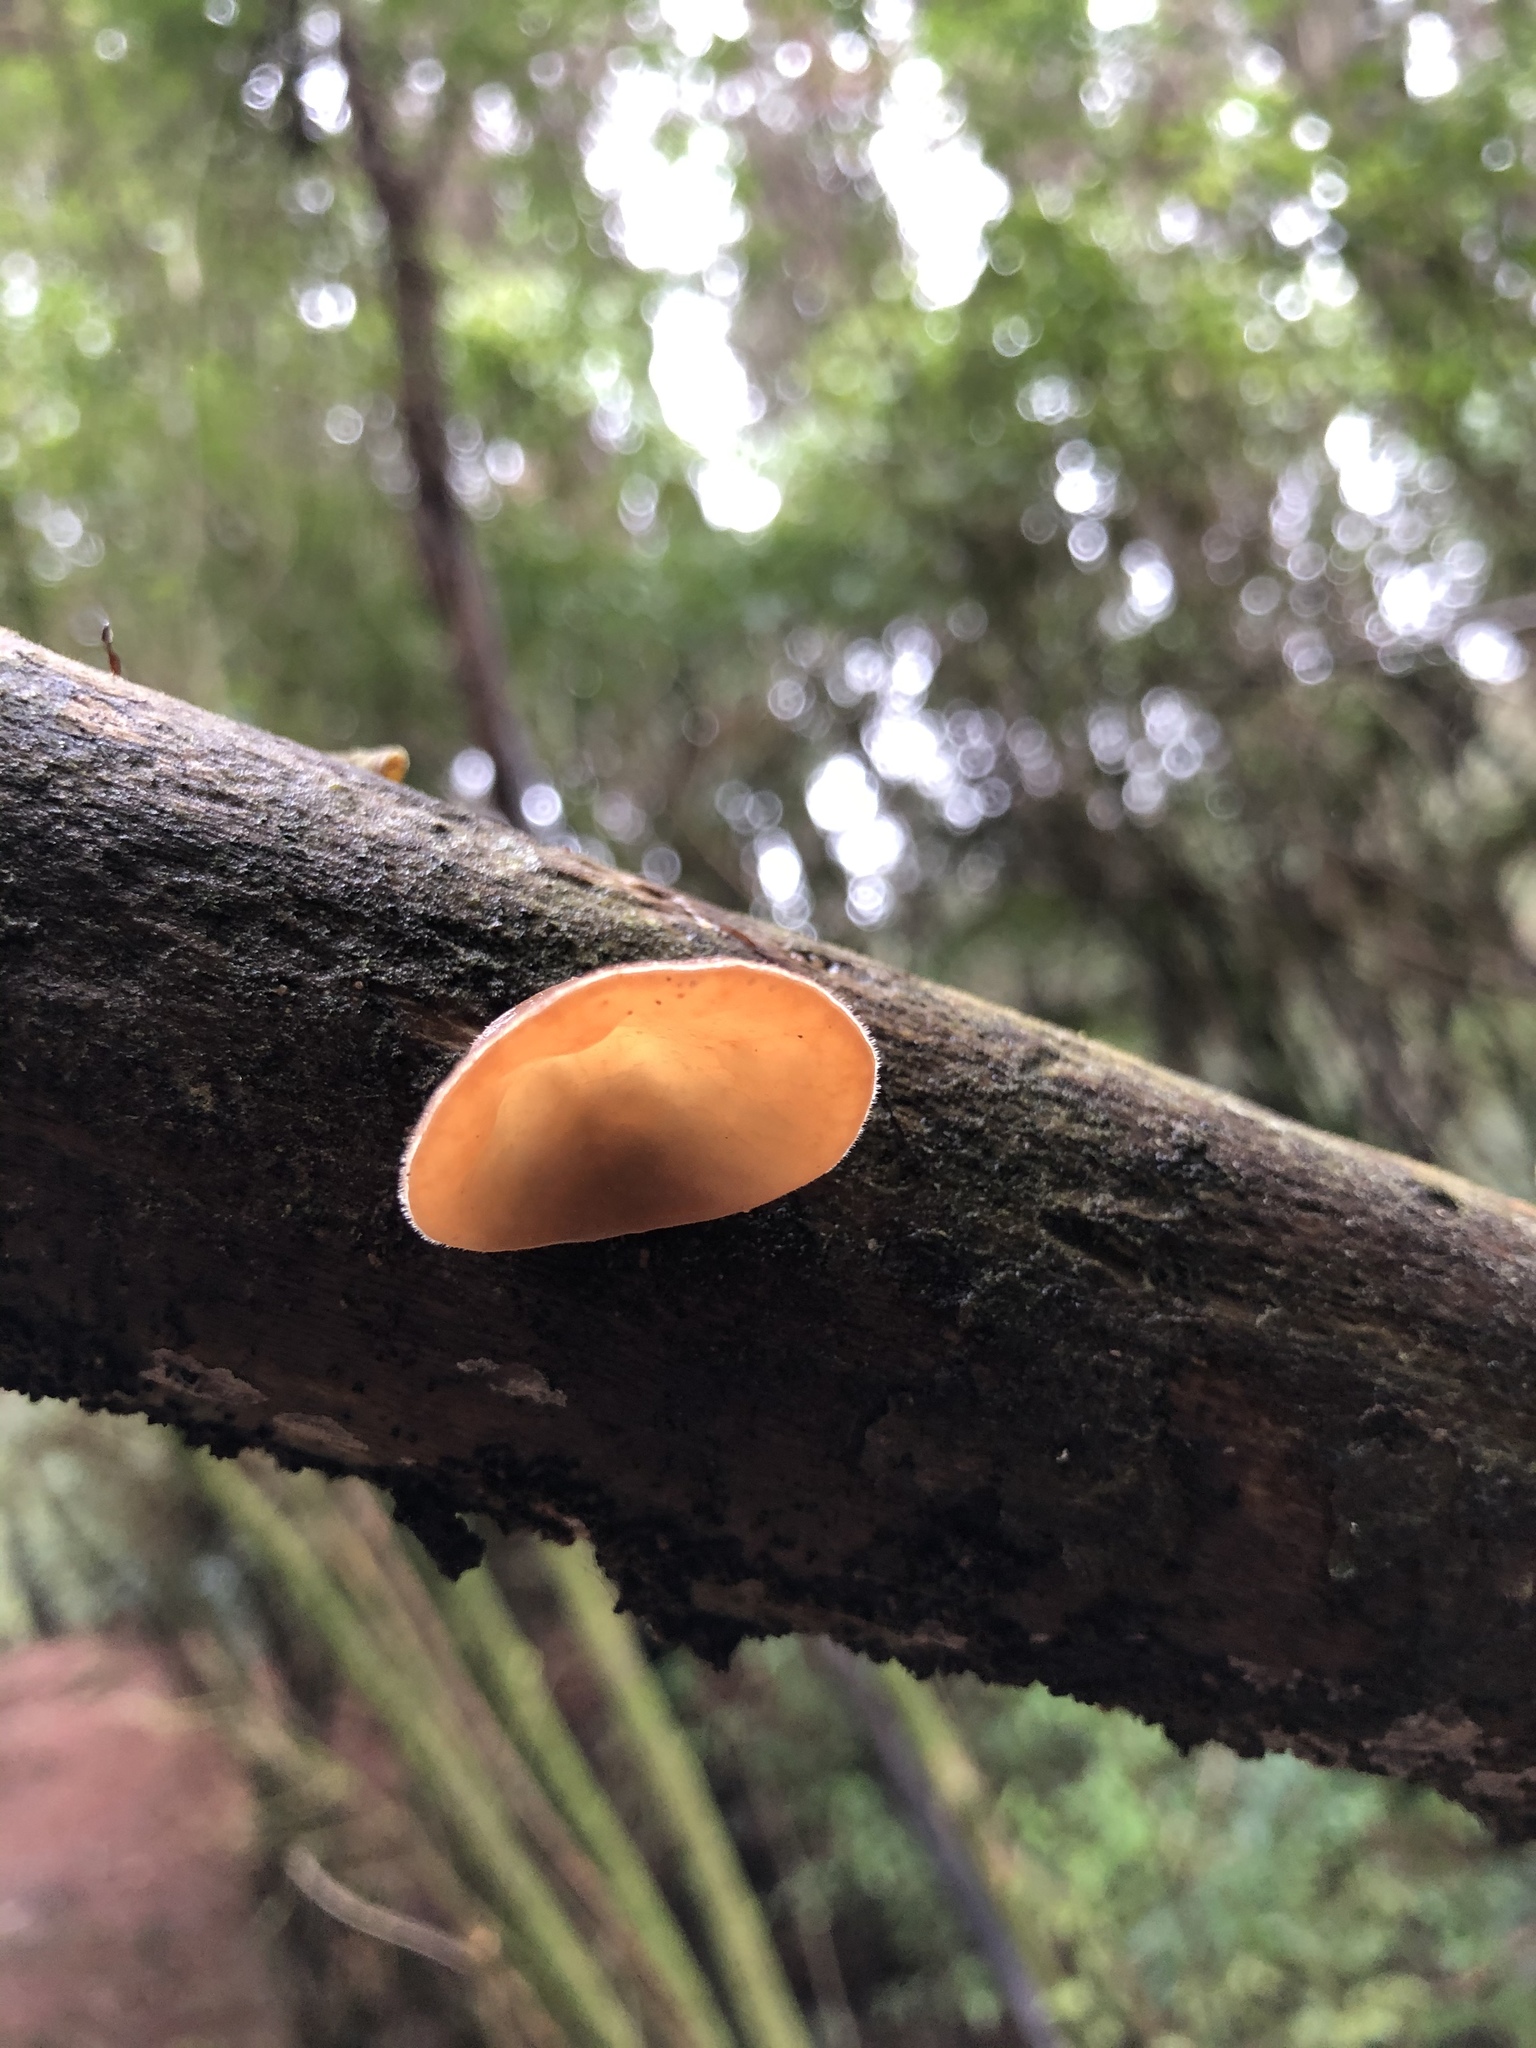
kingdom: Fungi
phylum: Basidiomycota
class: Agaricomycetes
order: Auriculariales
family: Auriculariaceae
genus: Auricularia
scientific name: Auricularia cornea
